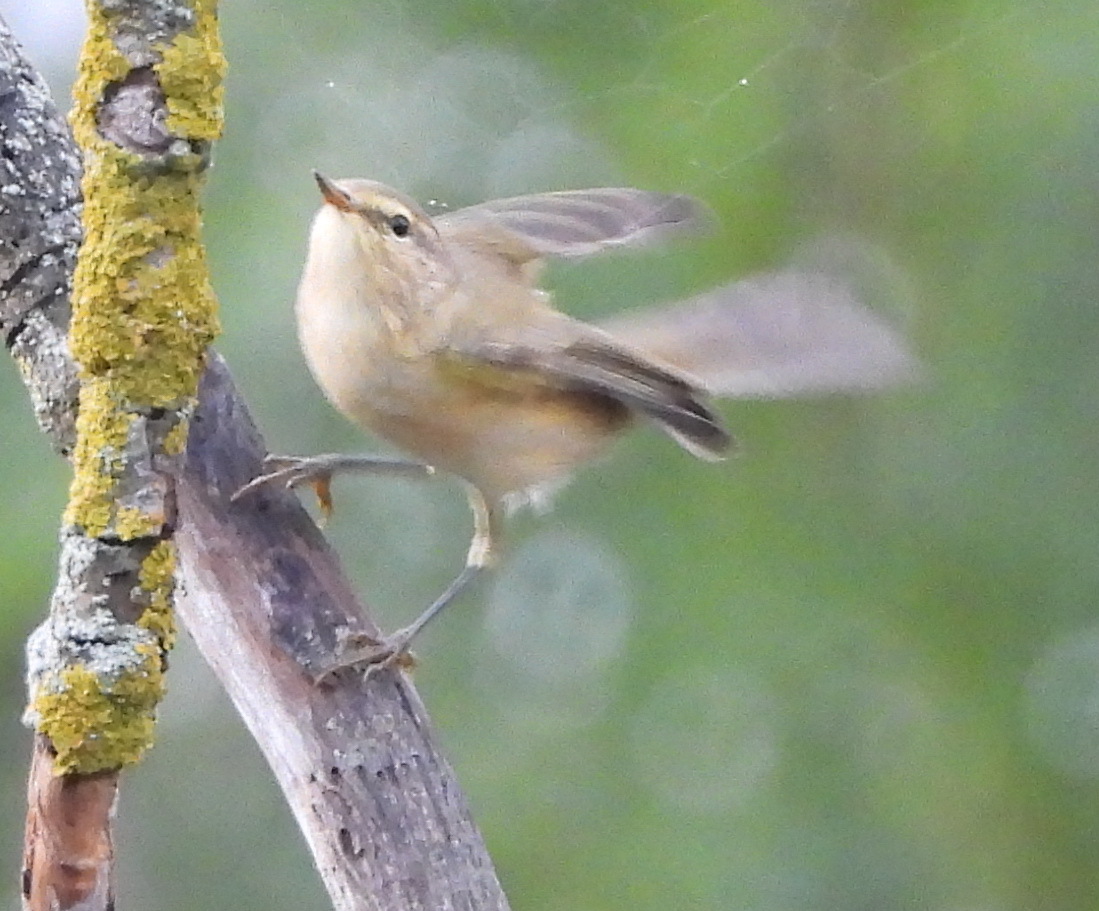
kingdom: Animalia
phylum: Chordata
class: Aves
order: Passeriformes
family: Phylloscopidae
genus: Phylloscopus
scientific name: Phylloscopus collybita
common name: Common chiffchaff
